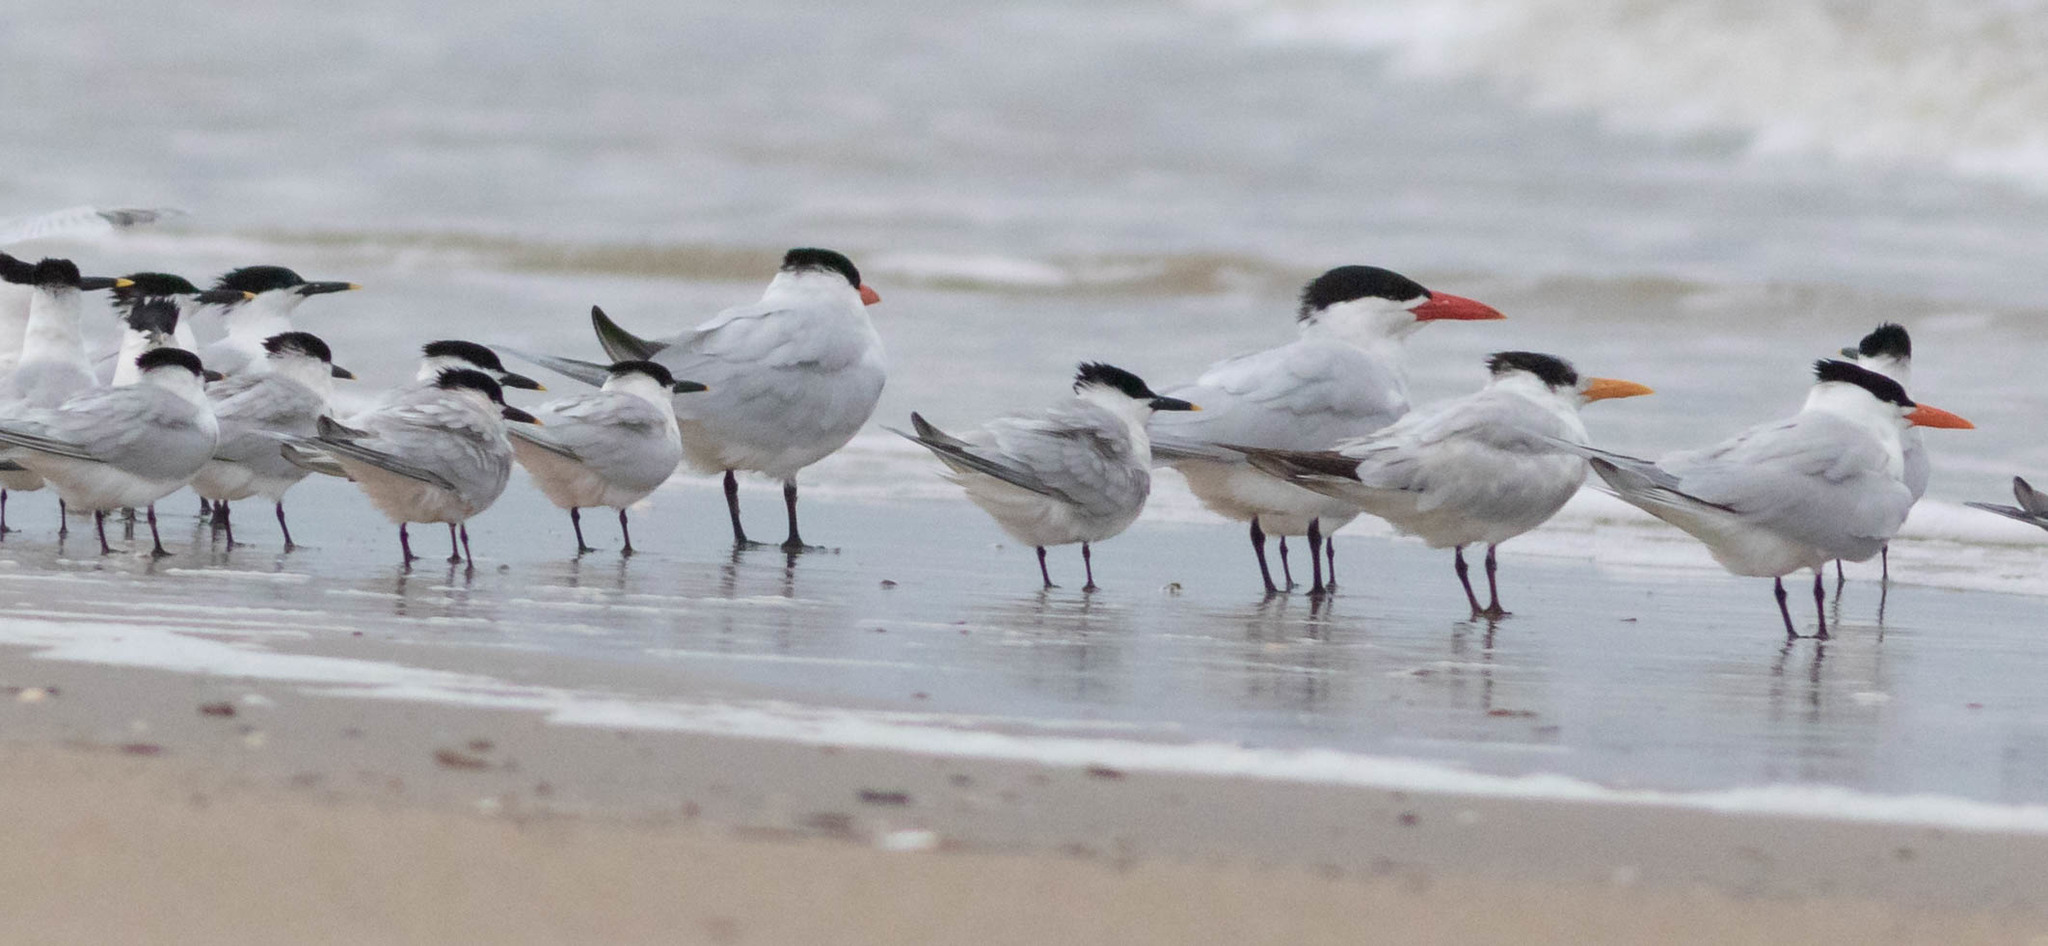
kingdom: Animalia
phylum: Chordata
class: Aves
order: Charadriiformes
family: Laridae
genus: Hydroprogne
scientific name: Hydroprogne caspia
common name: Caspian tern
